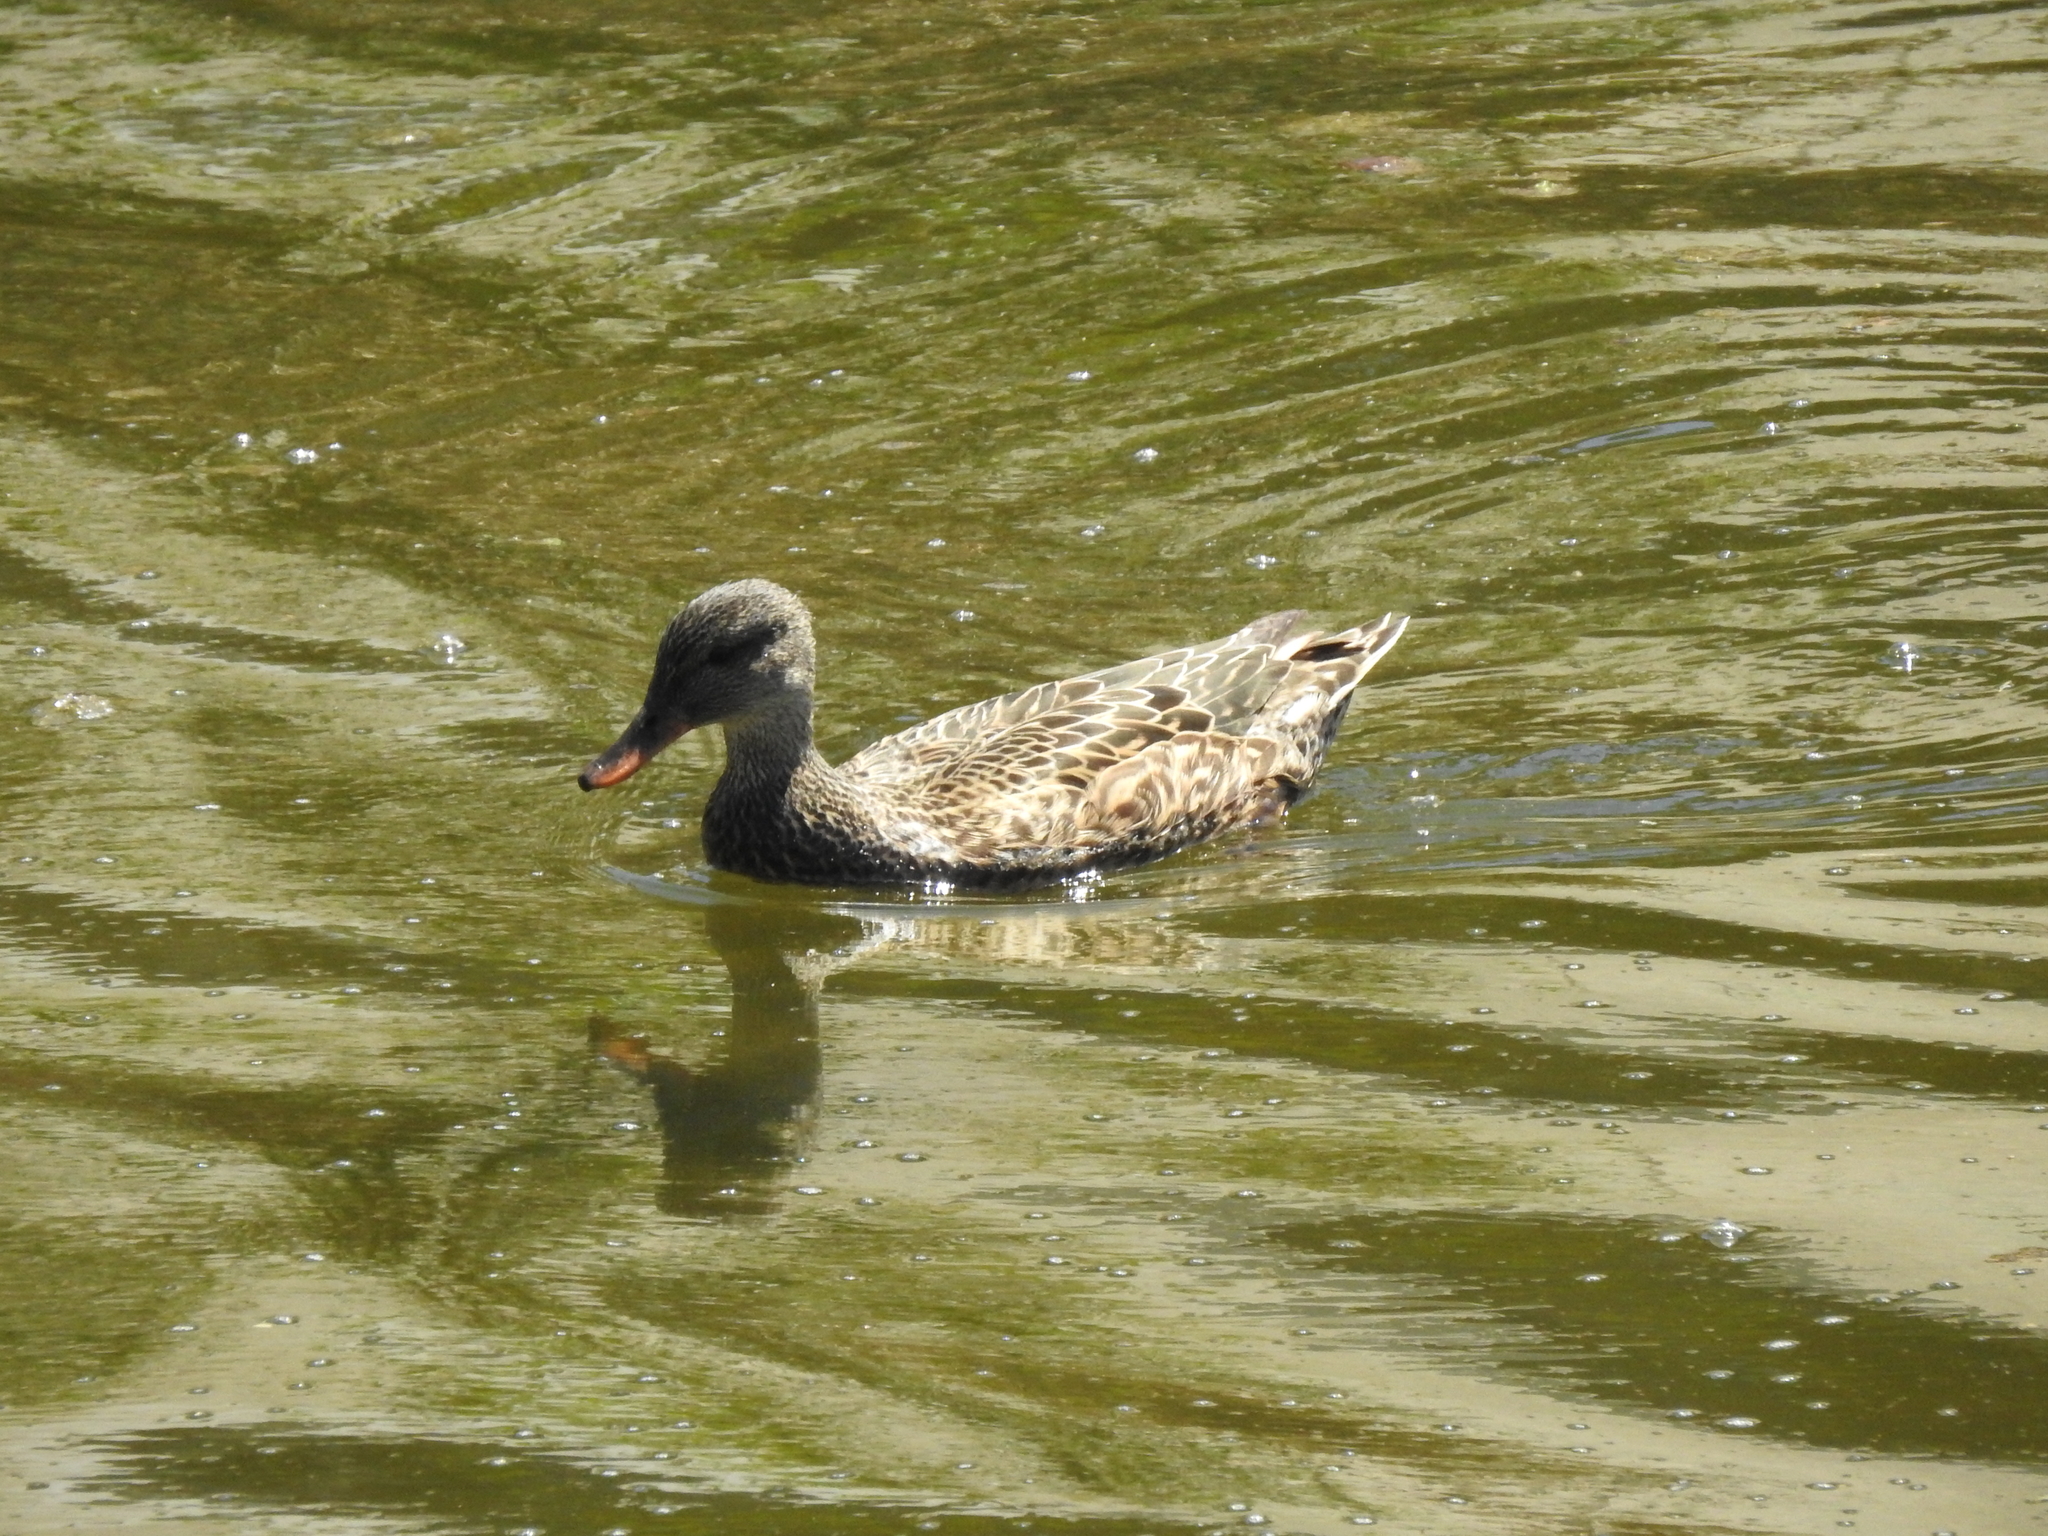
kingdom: Animalia
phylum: Chordata
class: Aves
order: Anseriformes
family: Anatidae
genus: Mareca
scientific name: Mareca strepera
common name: Gadwall
